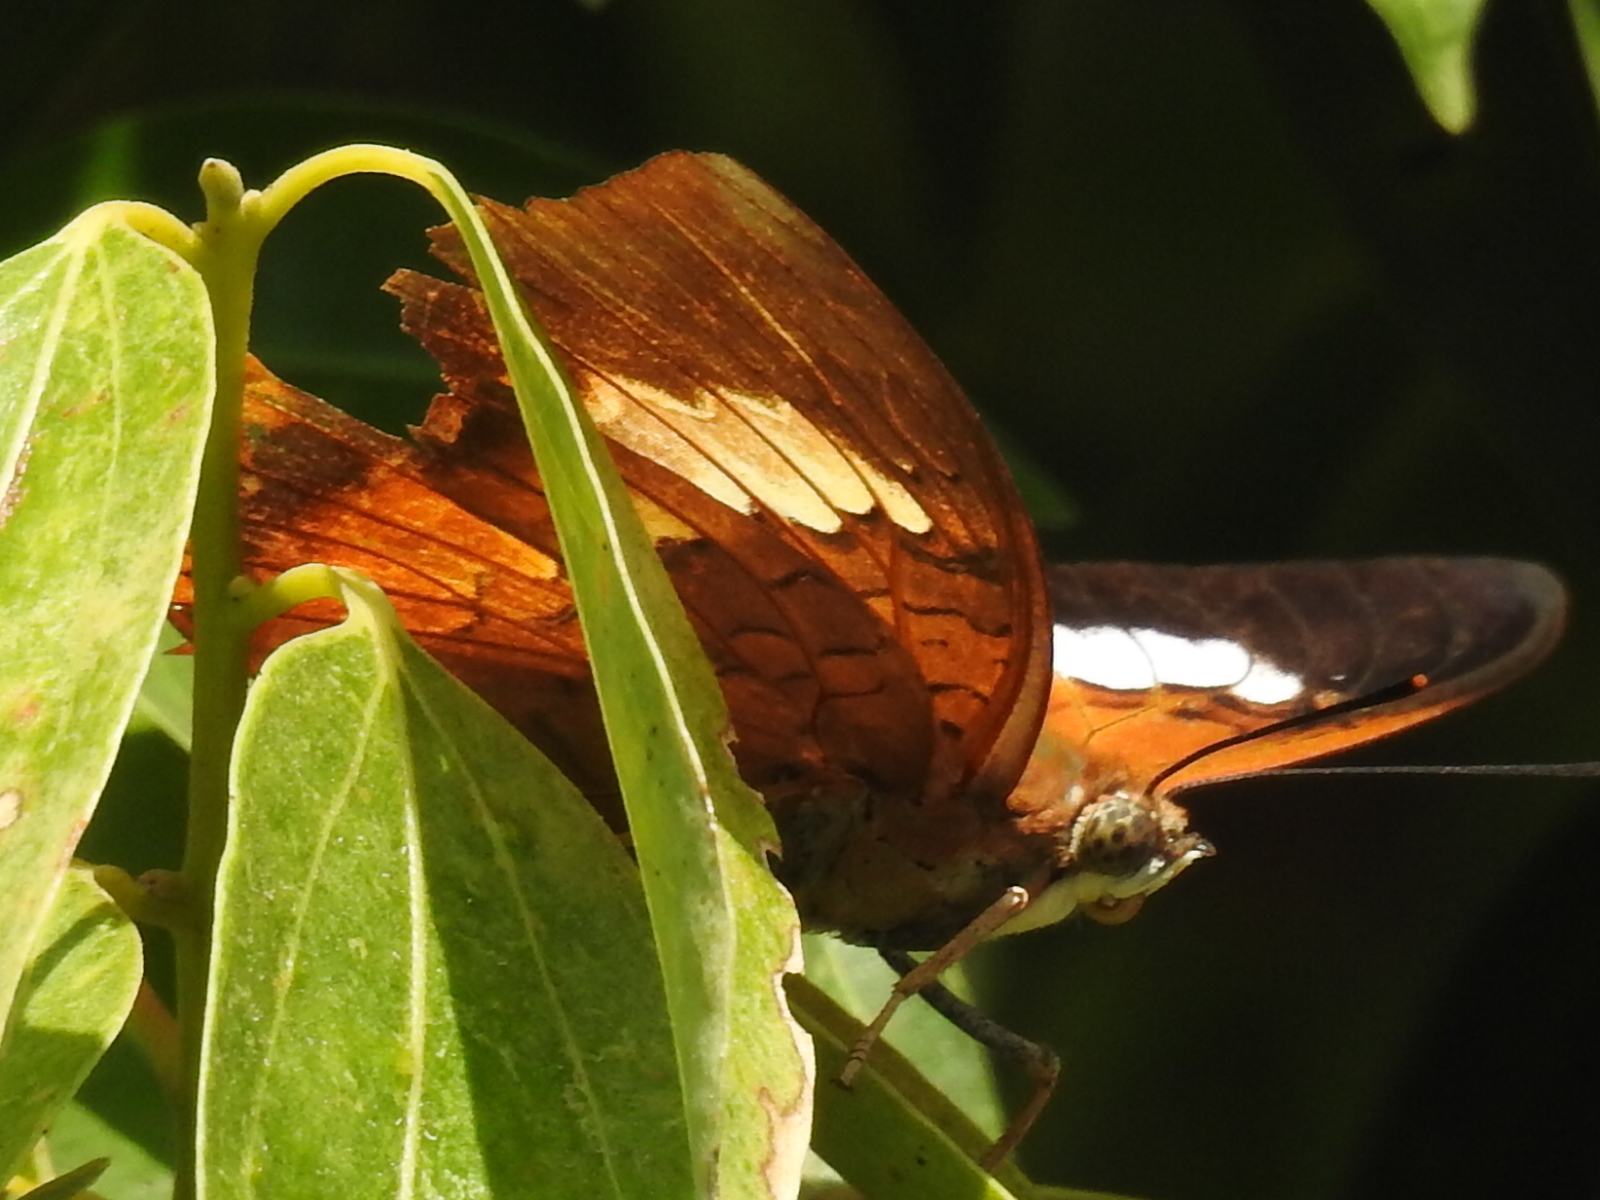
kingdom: Animalia
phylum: Arthropoda
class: Insecta
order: Lepidoptera
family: Nymphalidae
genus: Charaxes
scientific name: Charaxes bernardus
